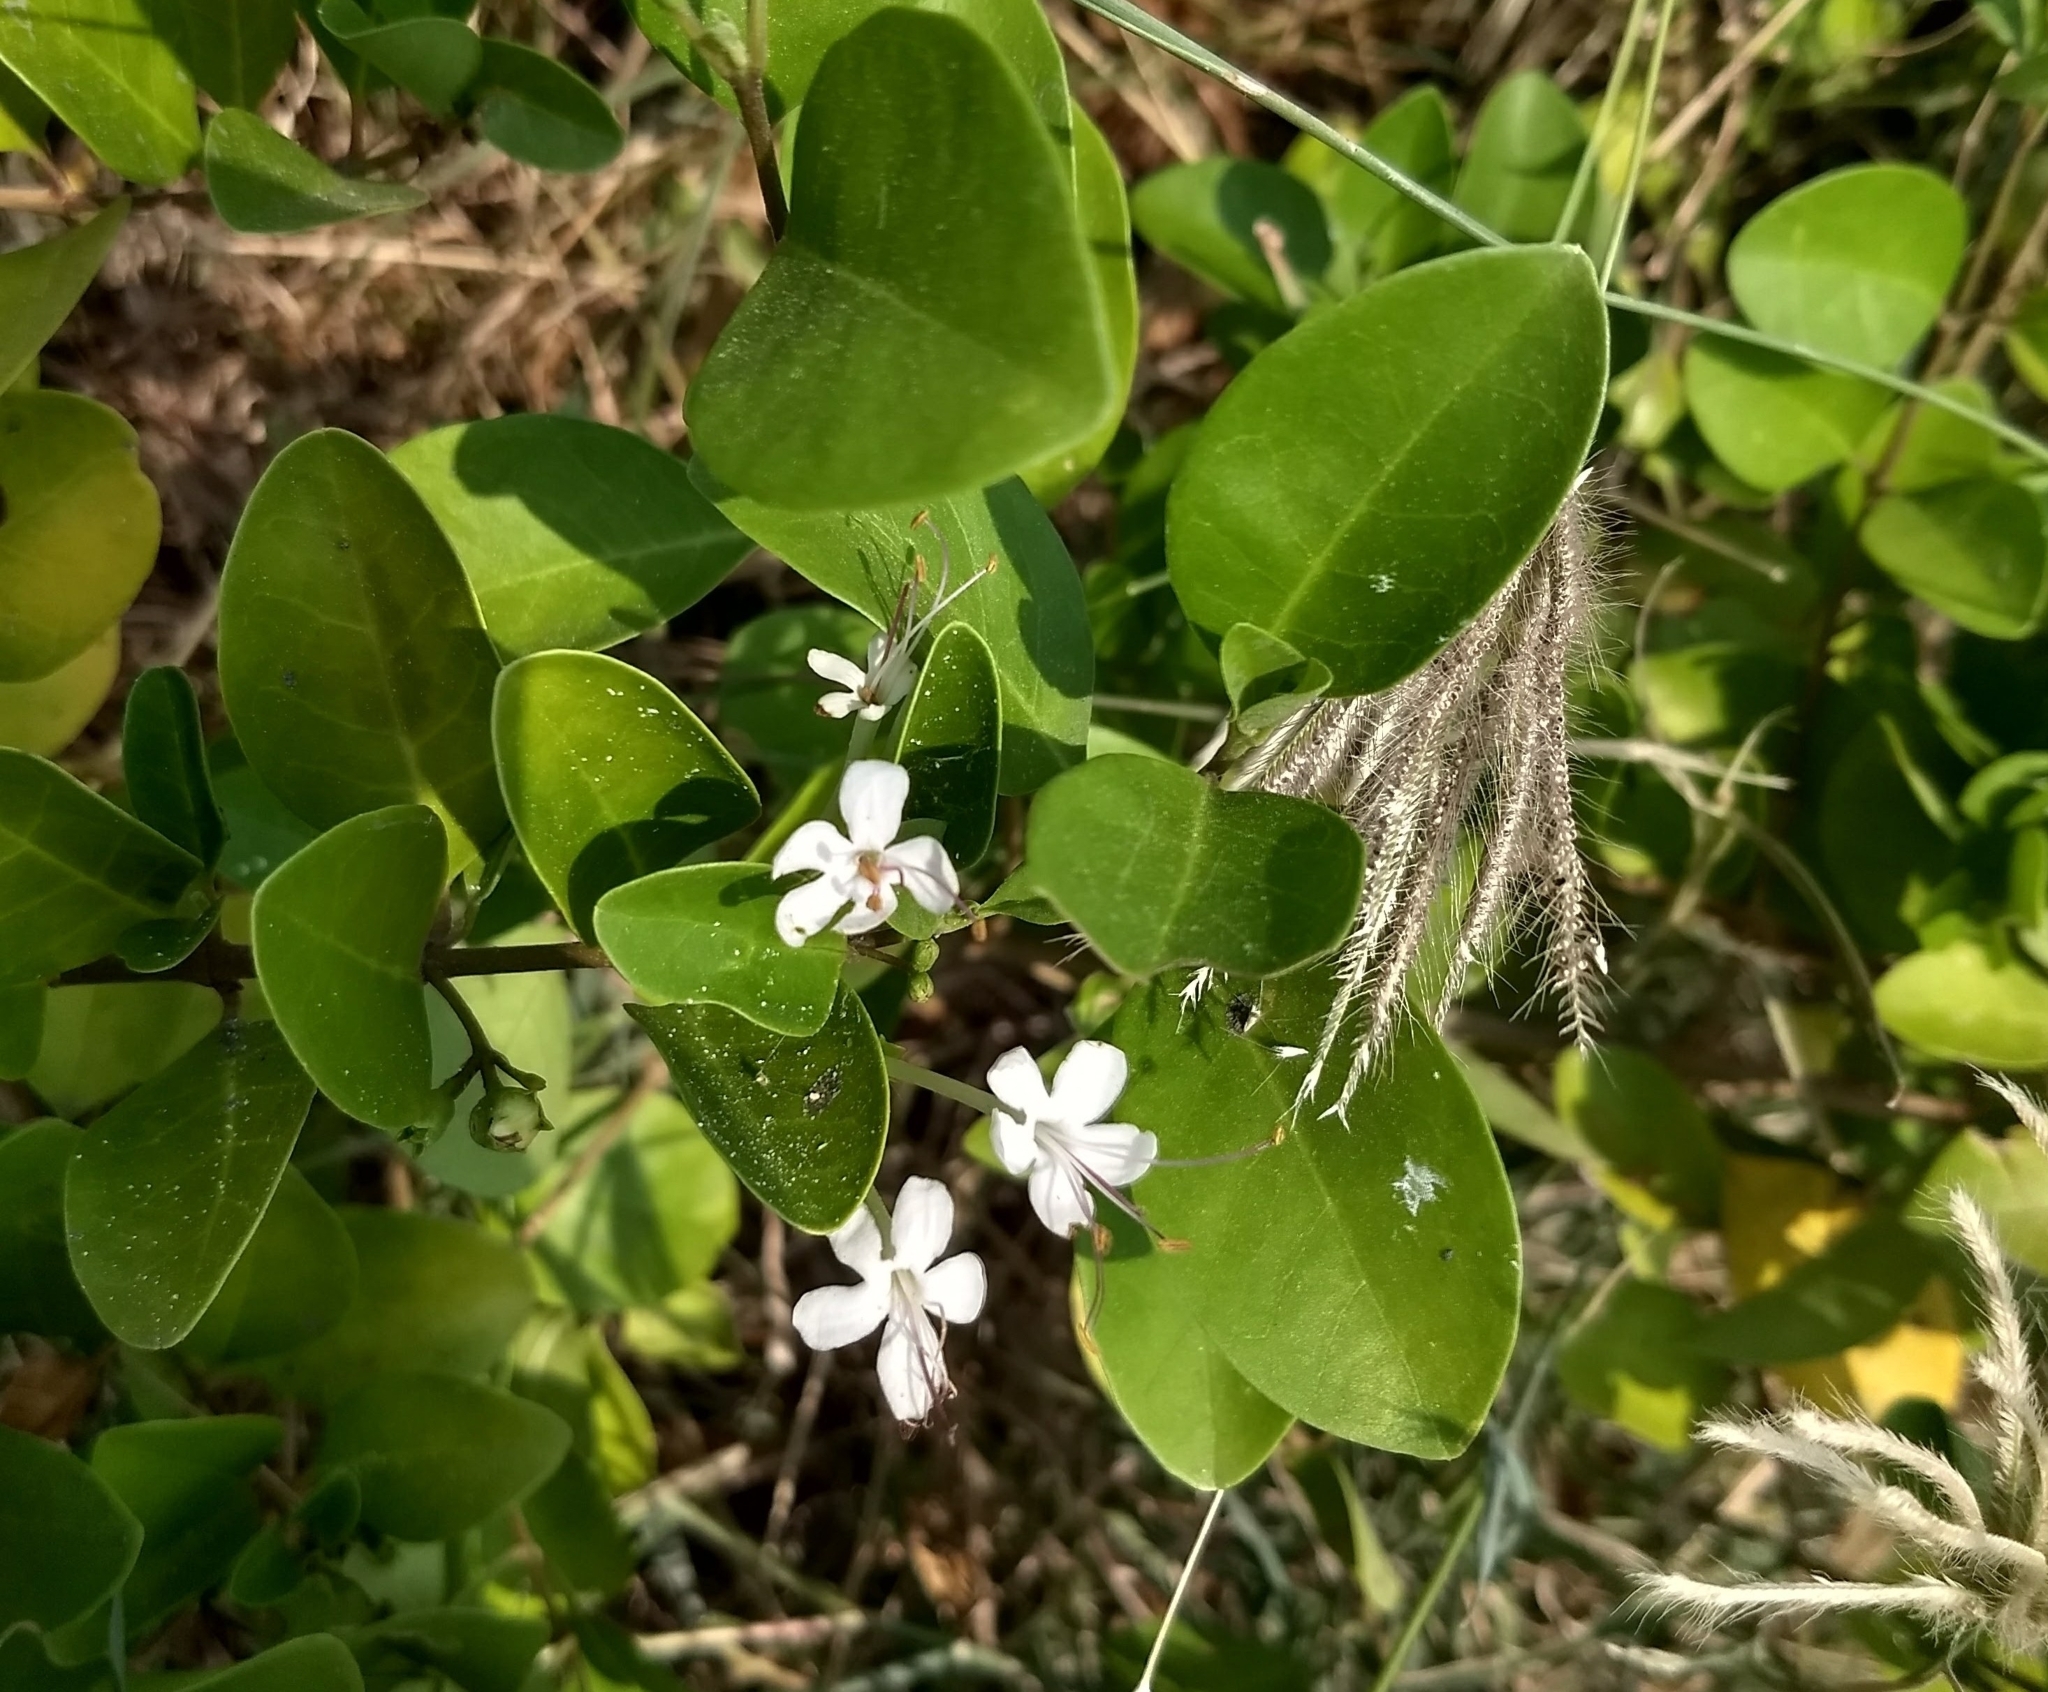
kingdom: Plantae
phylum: Tracheophyta
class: Magnoliopsida
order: Lamiales
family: Lamiaceae
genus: Volkameria
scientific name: Volkameria inermis
